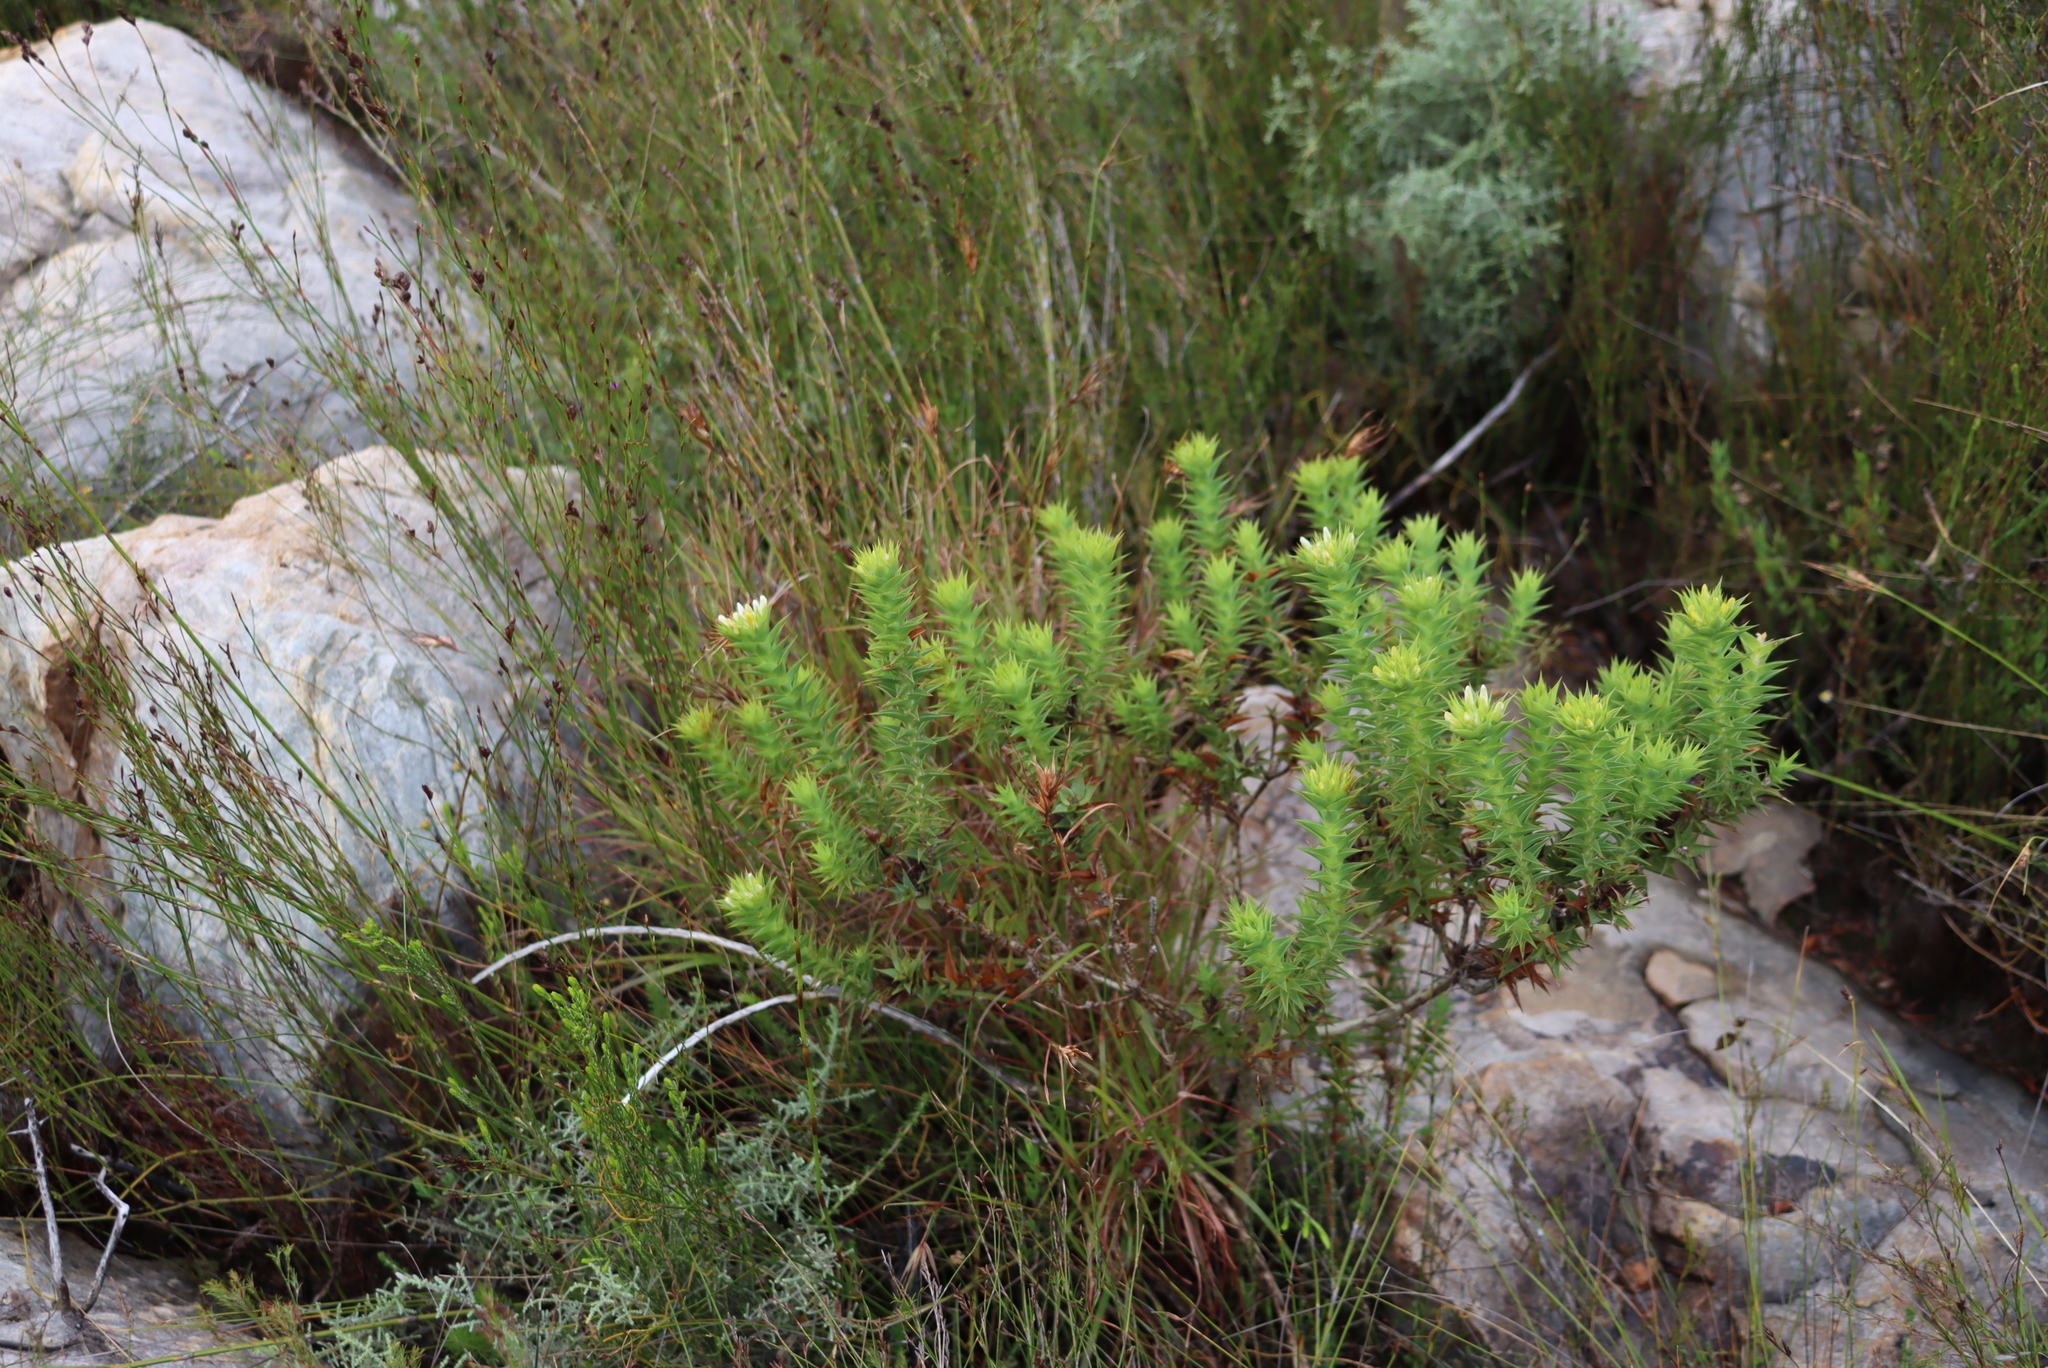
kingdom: Plantae
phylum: Tracheophyta
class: Magnoliopsida
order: Fabales
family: Fabaceae
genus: Aspalathus
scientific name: Aspalathus cordata
